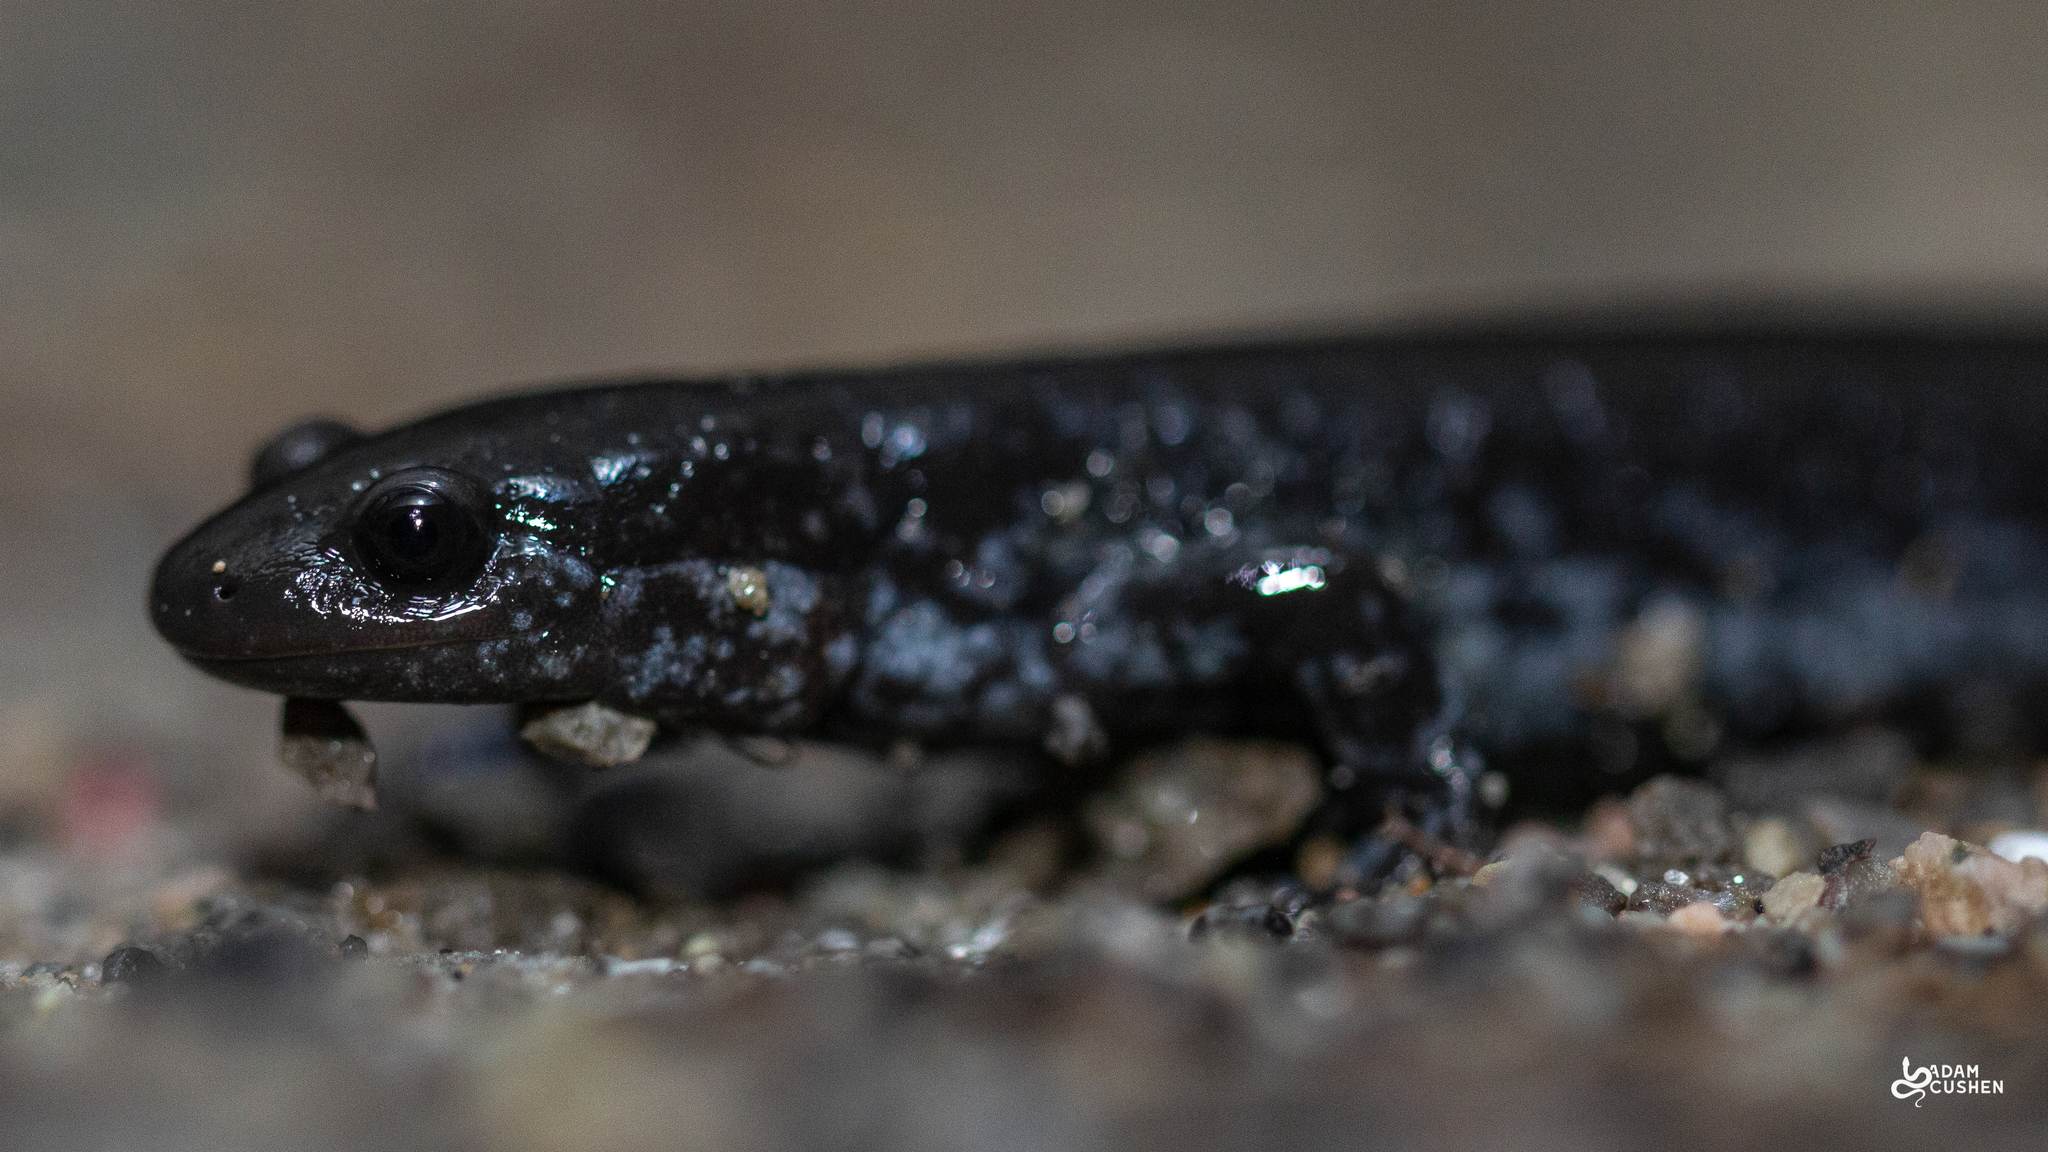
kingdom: Animalia
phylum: Chordata
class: Amphibia
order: Caudata
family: Ambystomatidae
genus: Ambystoma
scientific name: Ambystoma laterale
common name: Blue-spotted salamander
